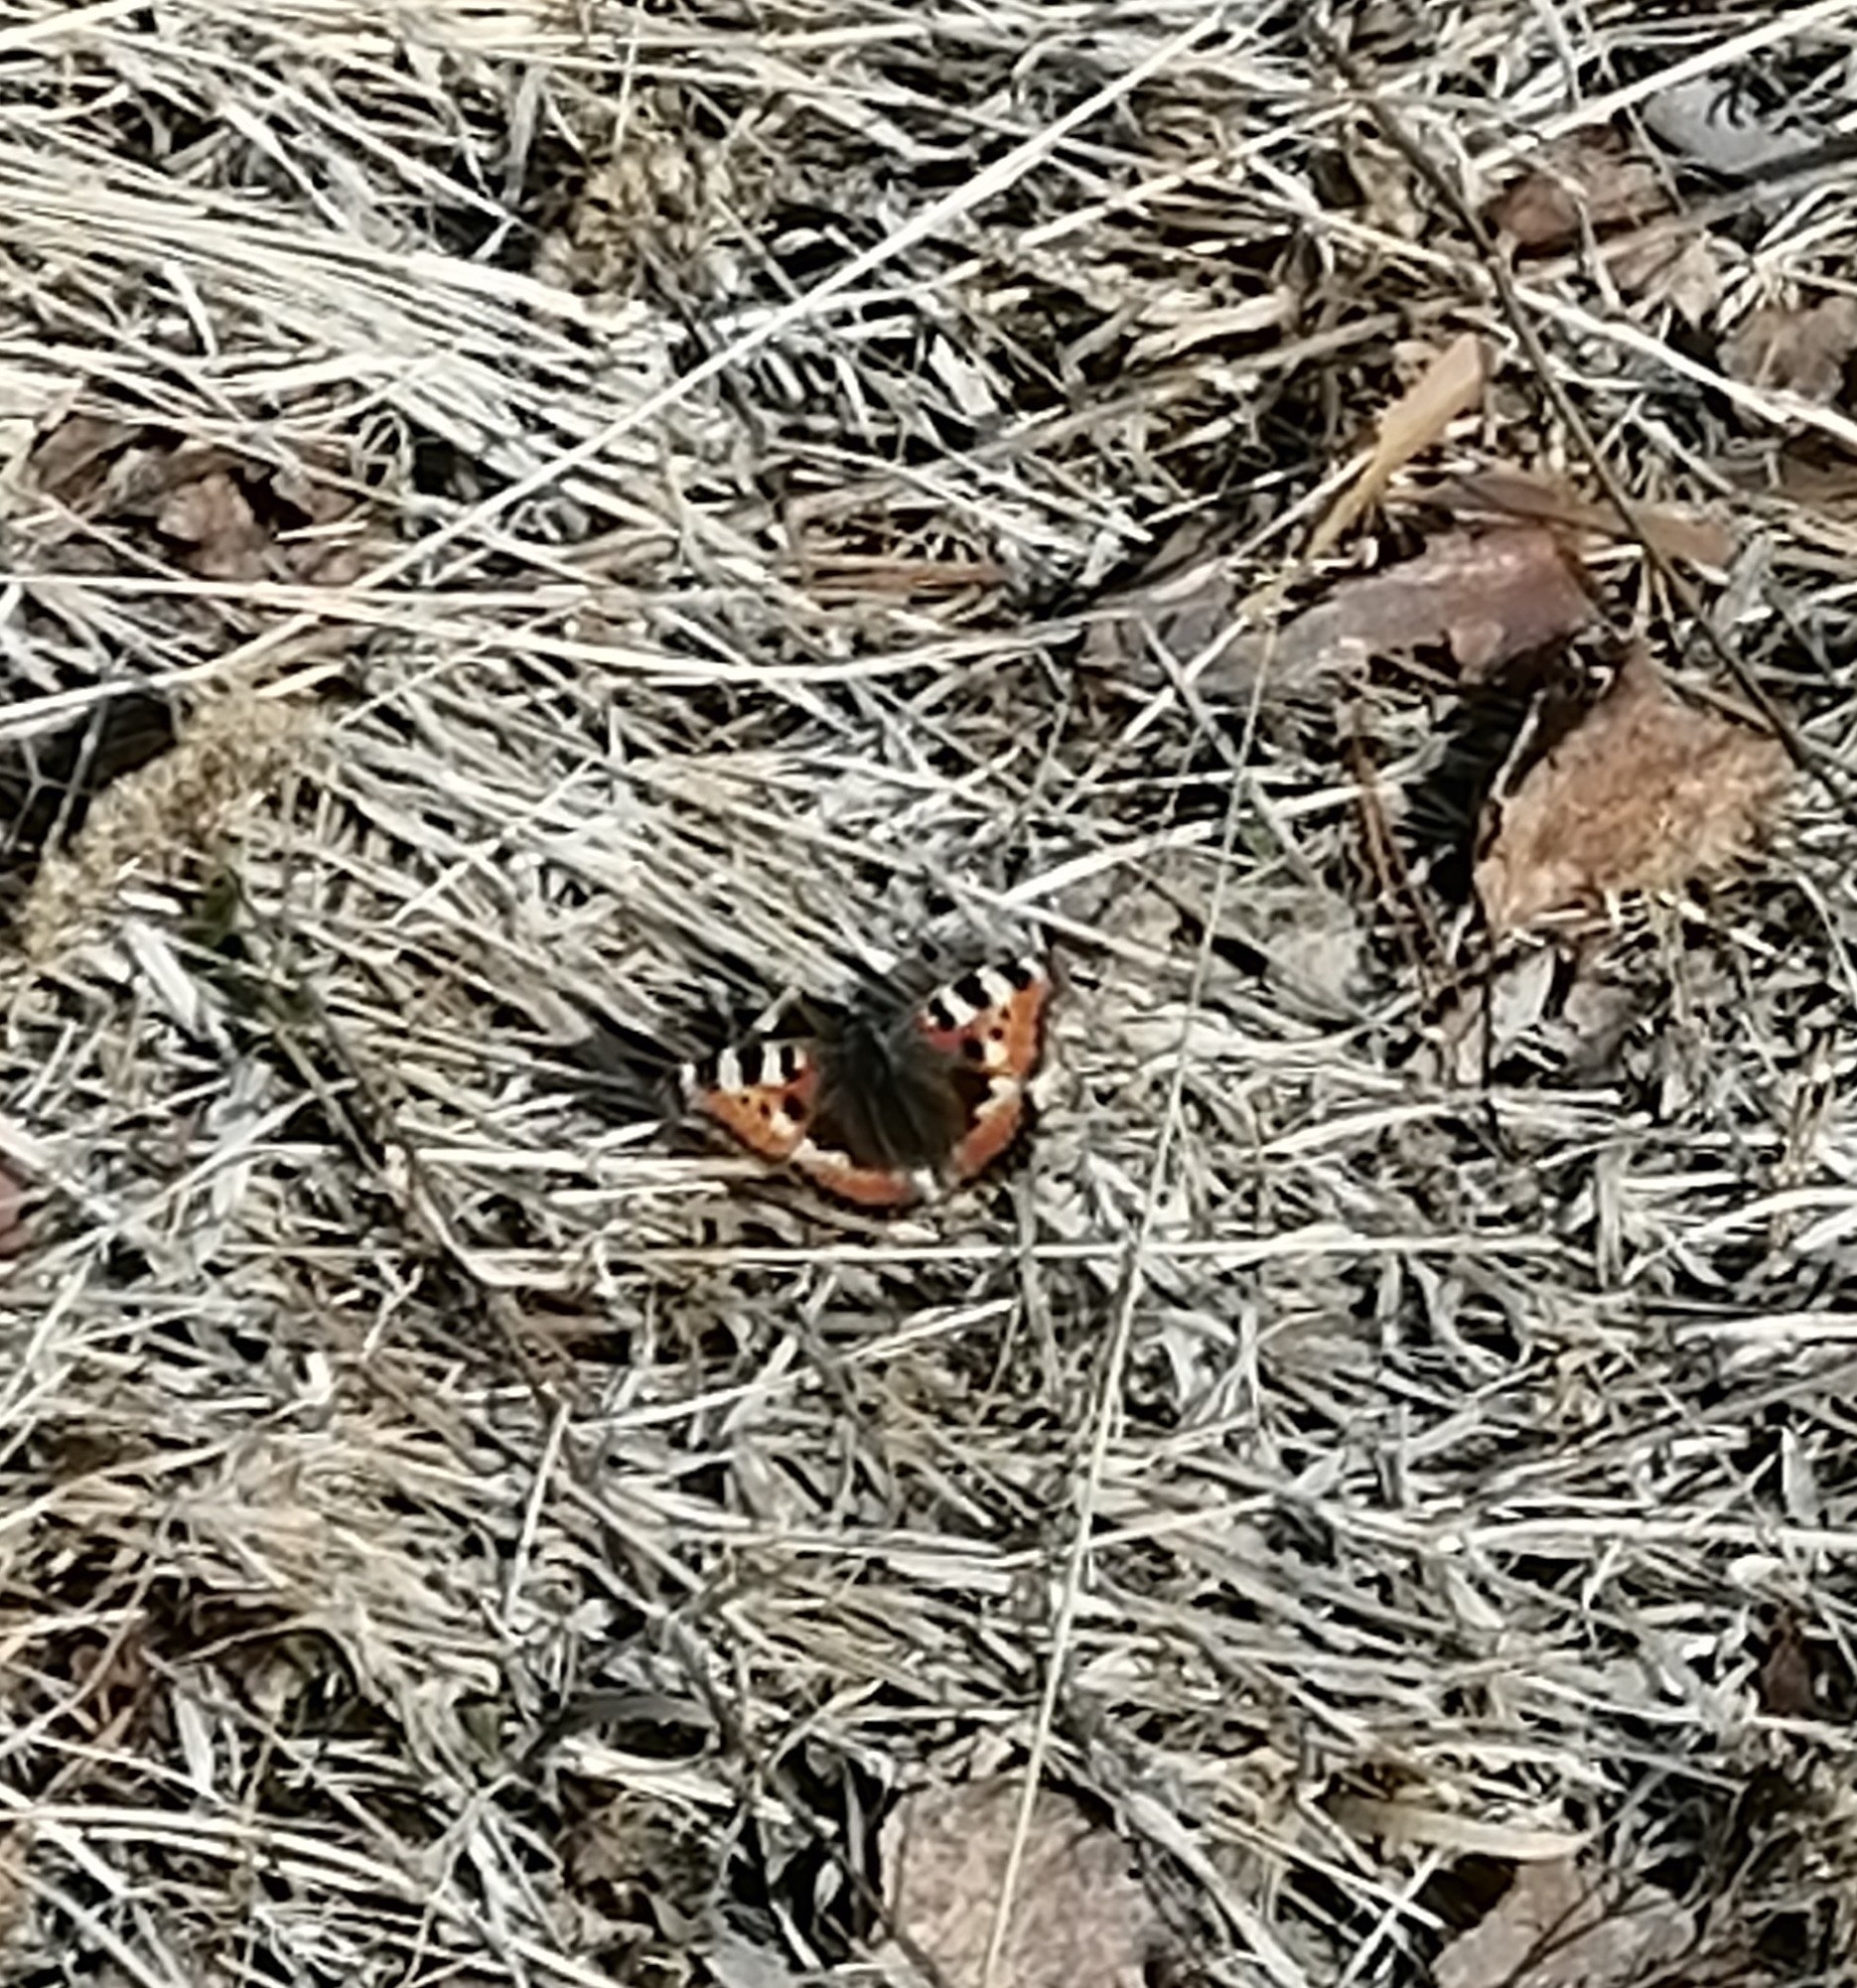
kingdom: Animalia
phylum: Arthropoda
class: Insecta
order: Lepidoptera
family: Nymphalidae
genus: Aglais
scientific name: Aglais urticae
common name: Small tortoiseshell
